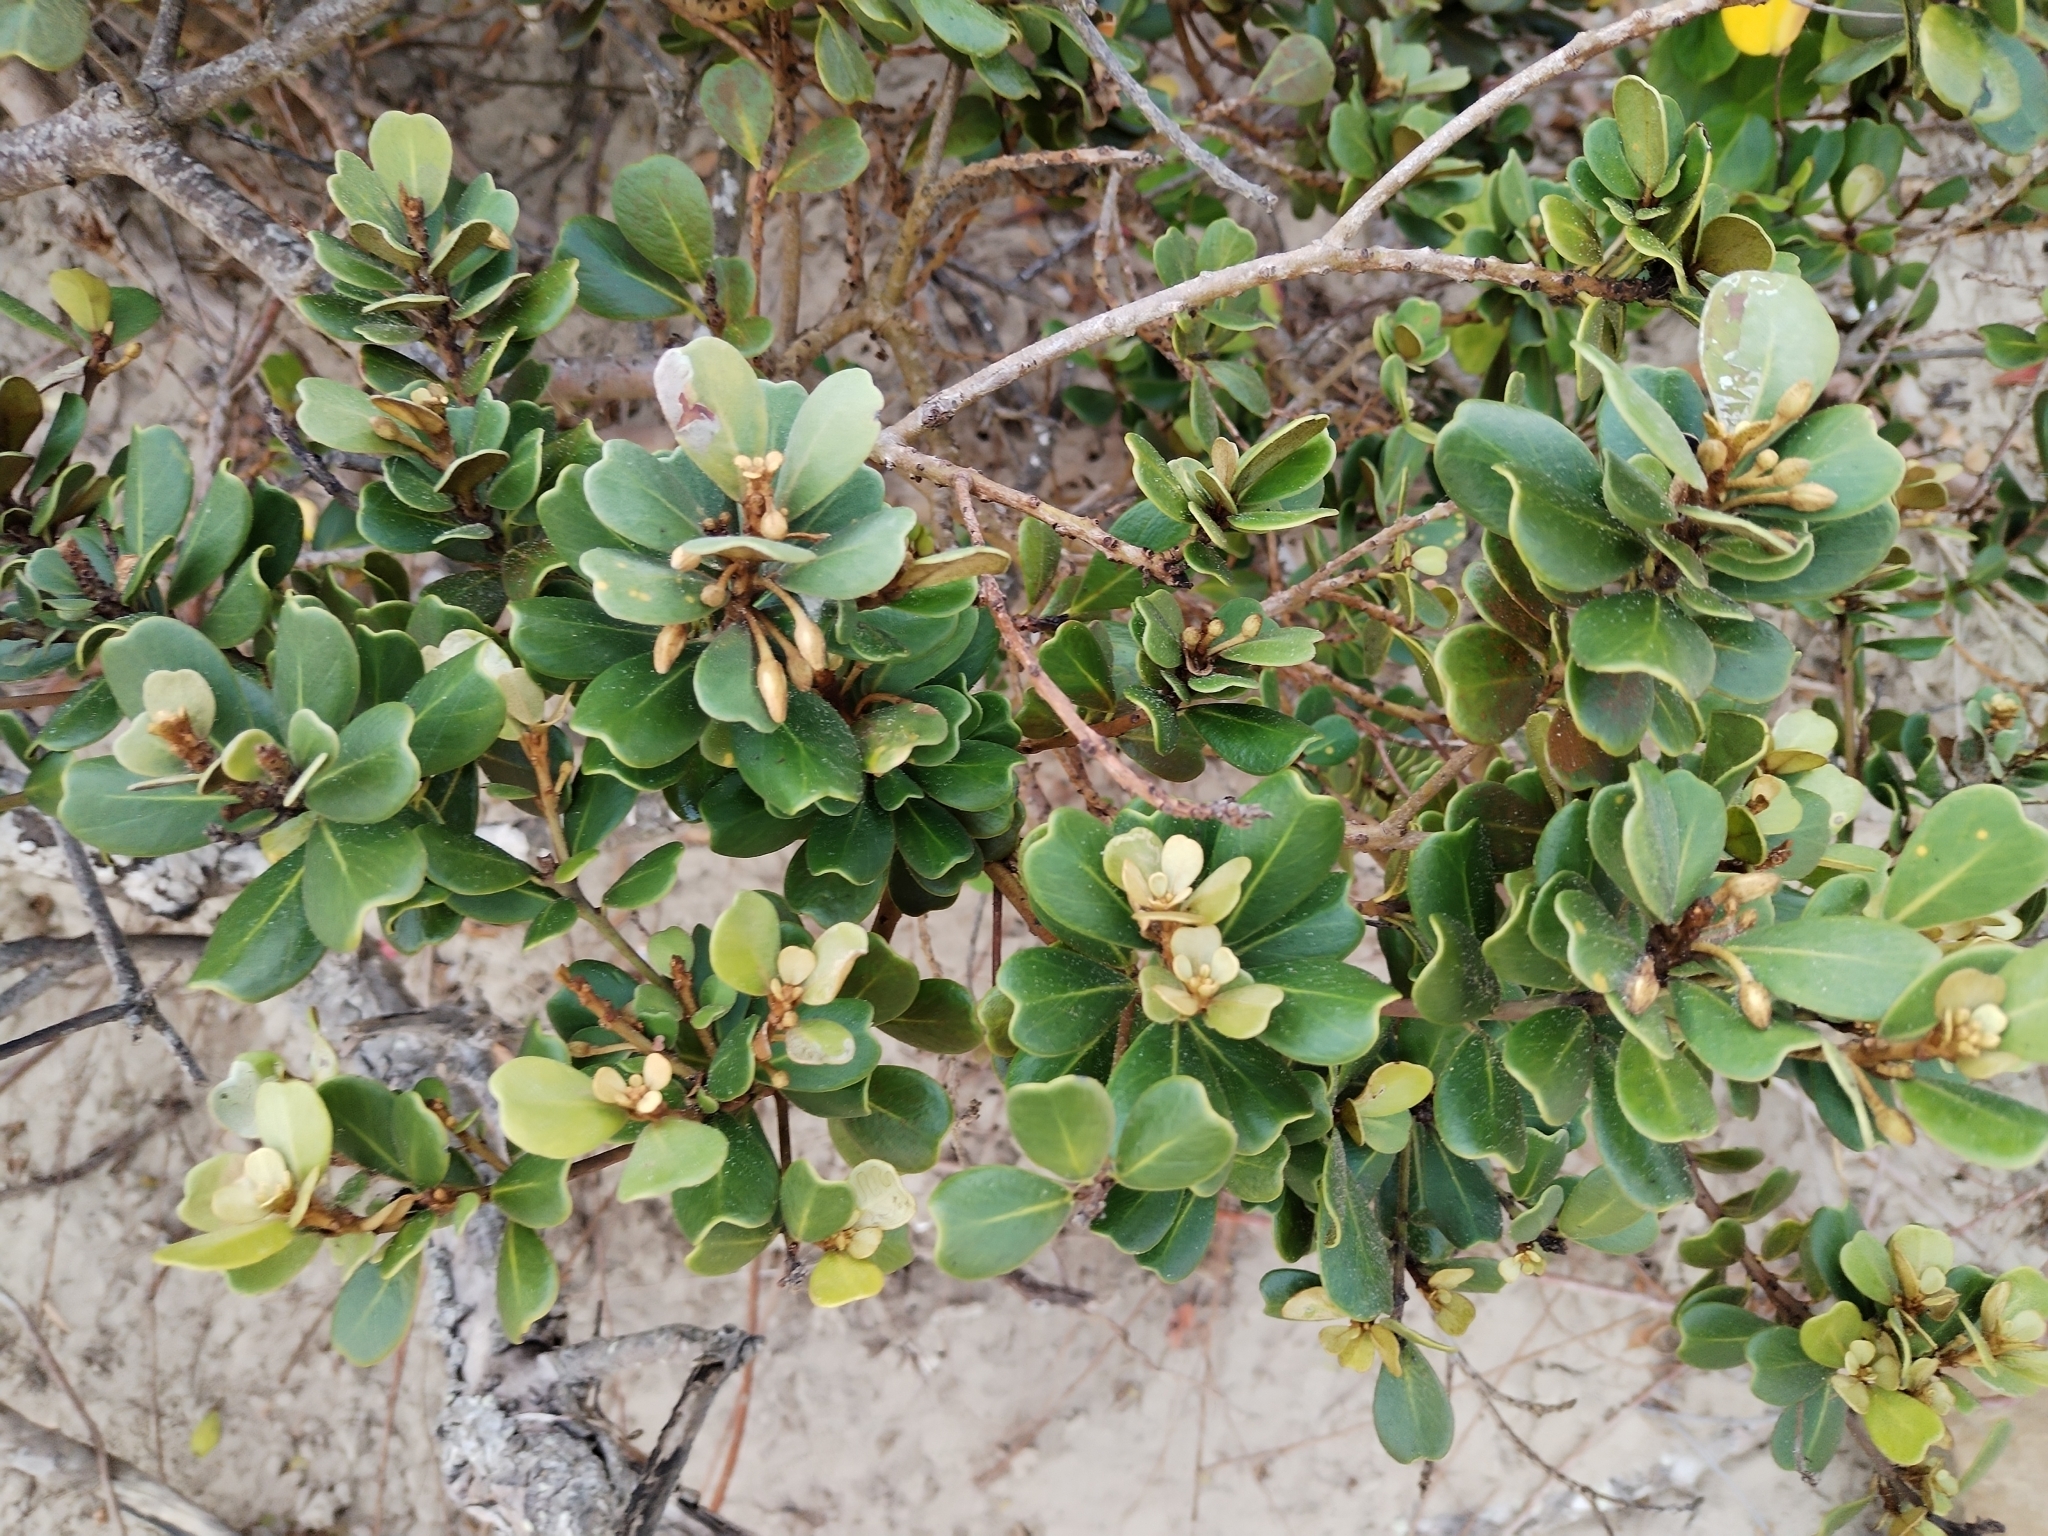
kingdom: Plantae
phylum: Tracheophyta
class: Magnoliopsida
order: Ericales
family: Sapotaceae
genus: Mimusops
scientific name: Mimusops caffra
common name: Coastal red milkwood
